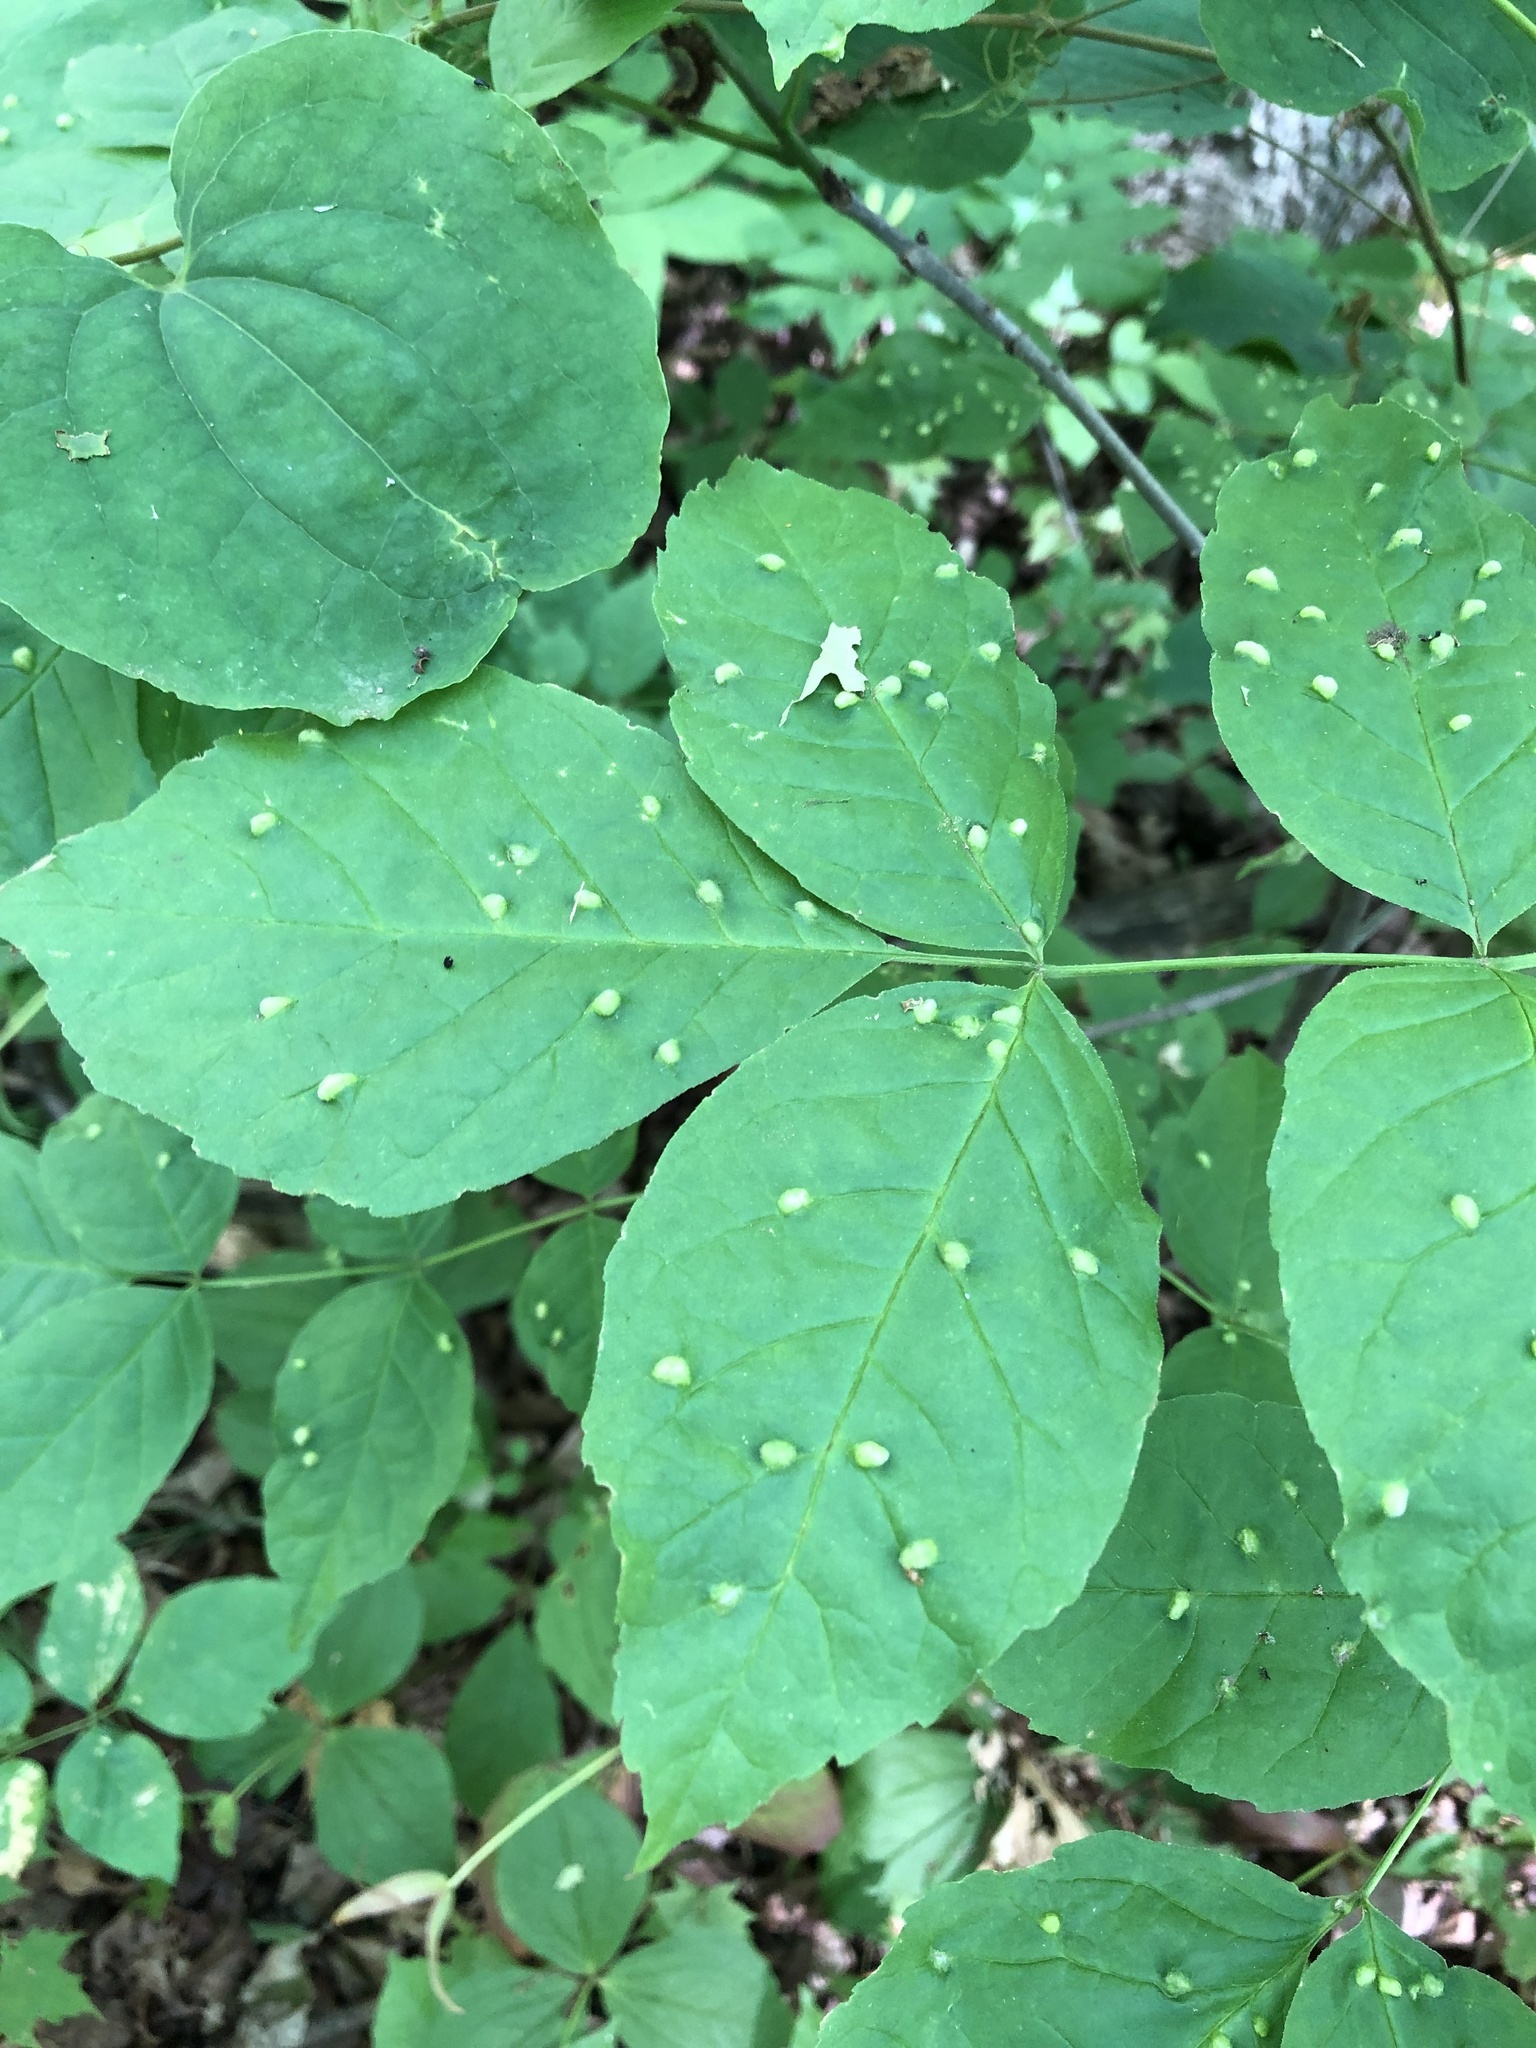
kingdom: Animalia
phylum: Arthropoda
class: Arachnida
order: Trombidiformes
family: Eriophyidae
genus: Aceria
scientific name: Aceria fraxinicola
